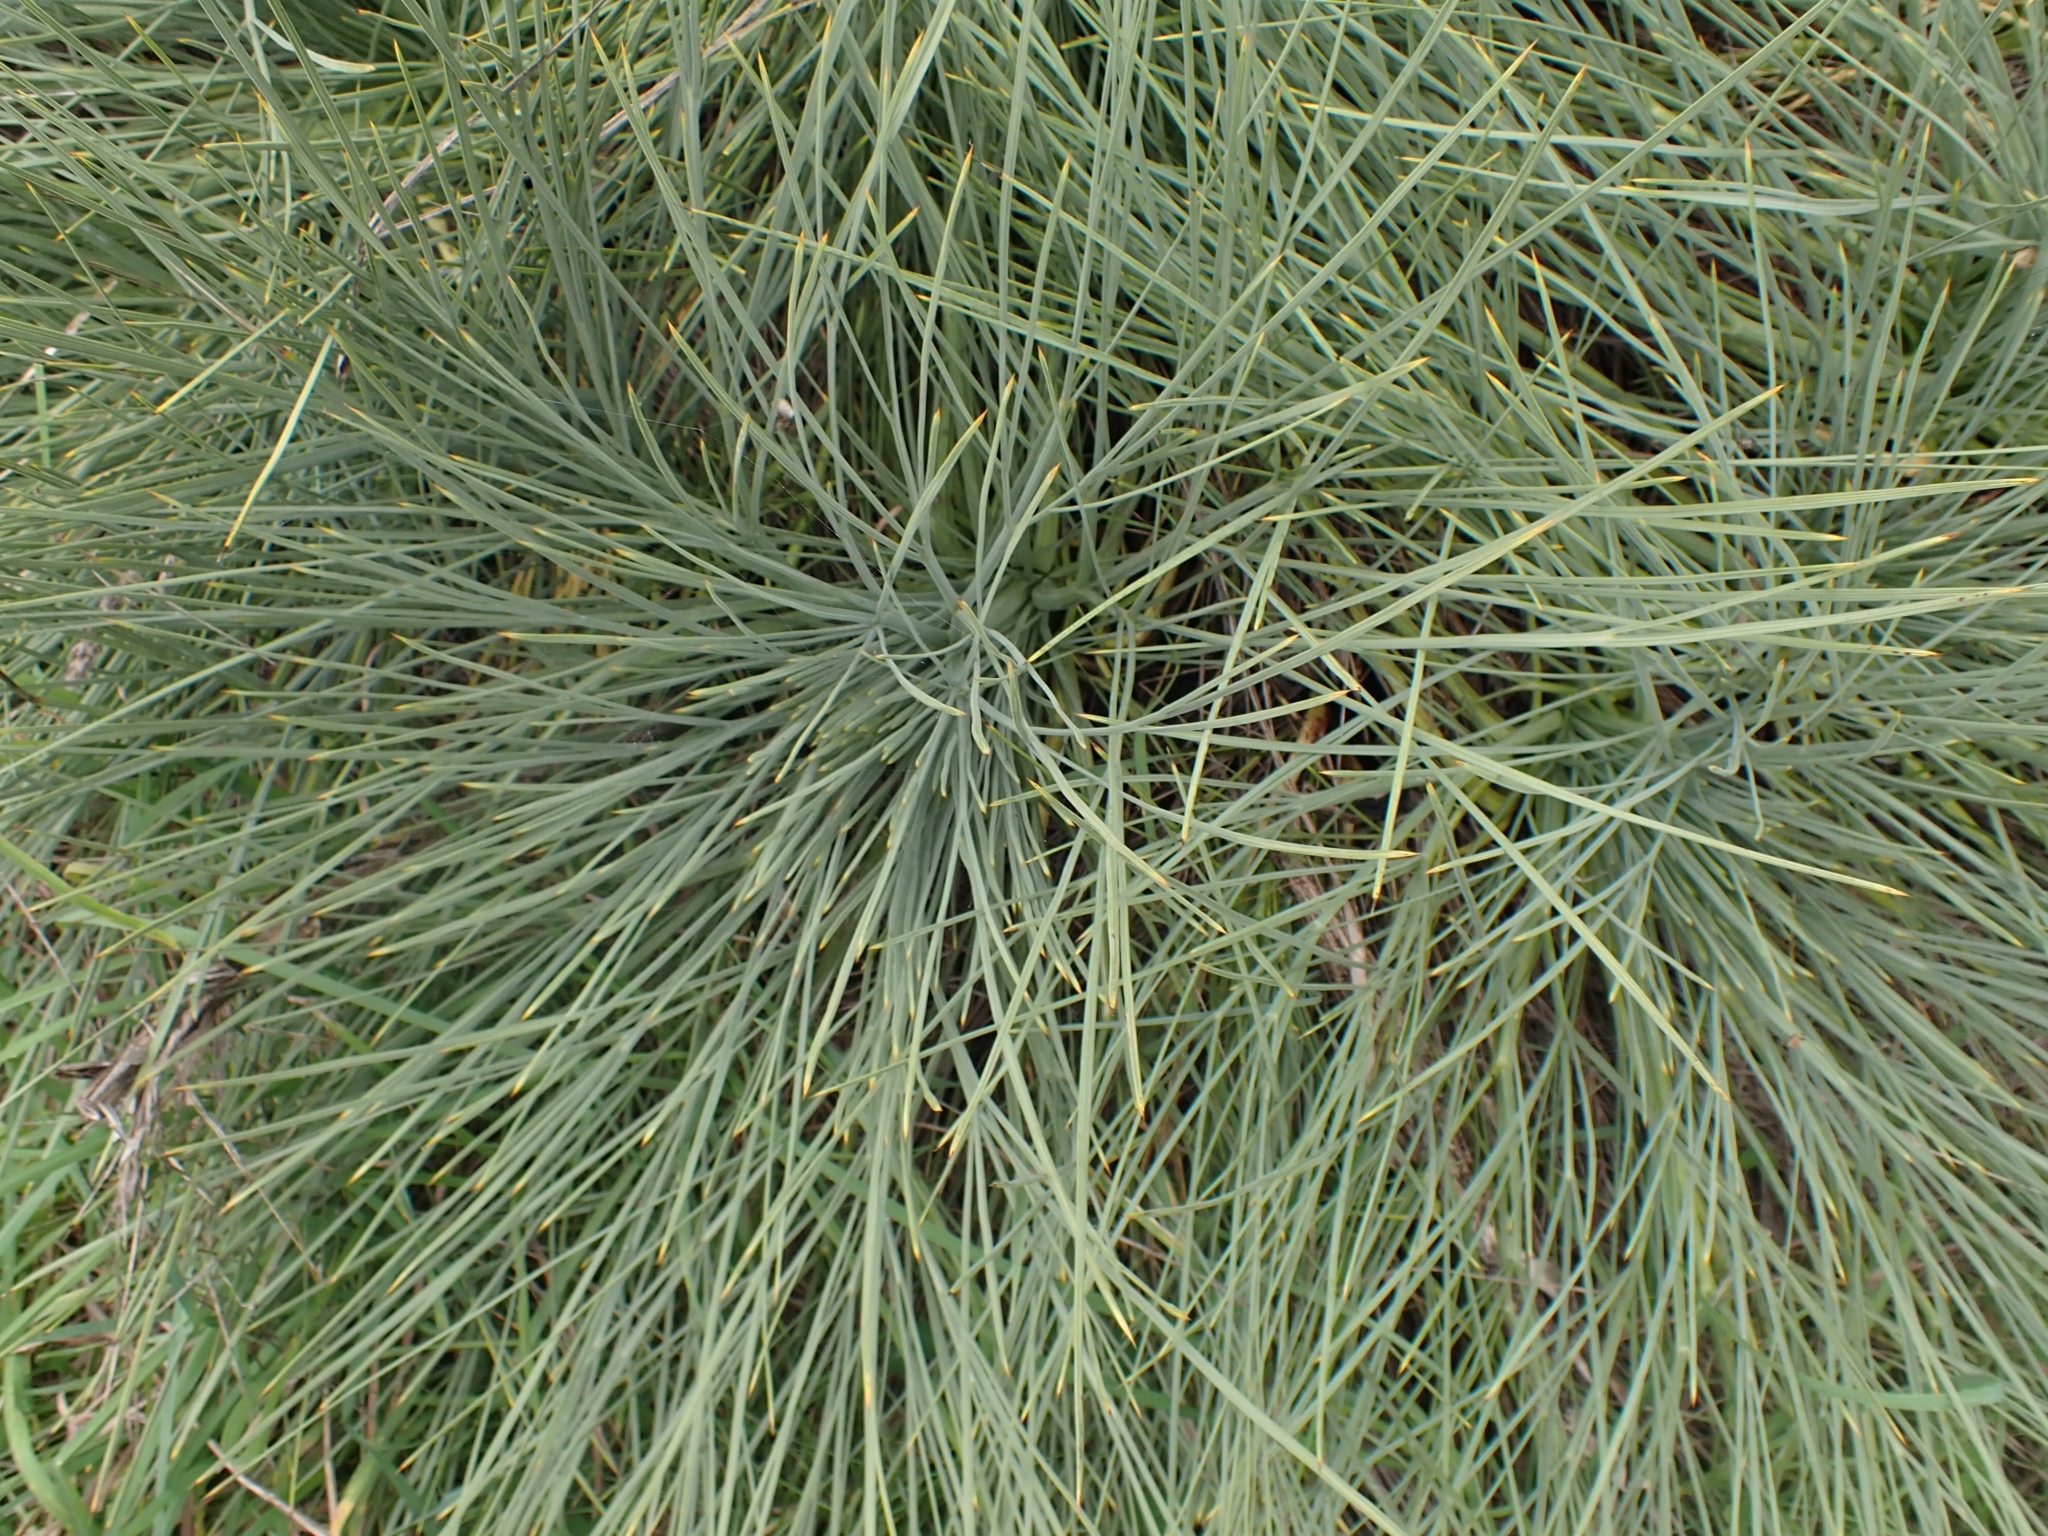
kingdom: Plantae
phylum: Tracheophyta
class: Magnoliopsida
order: Apiales
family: Apiaceae
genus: Aciphylla
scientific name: Aciphylla squarrosa
